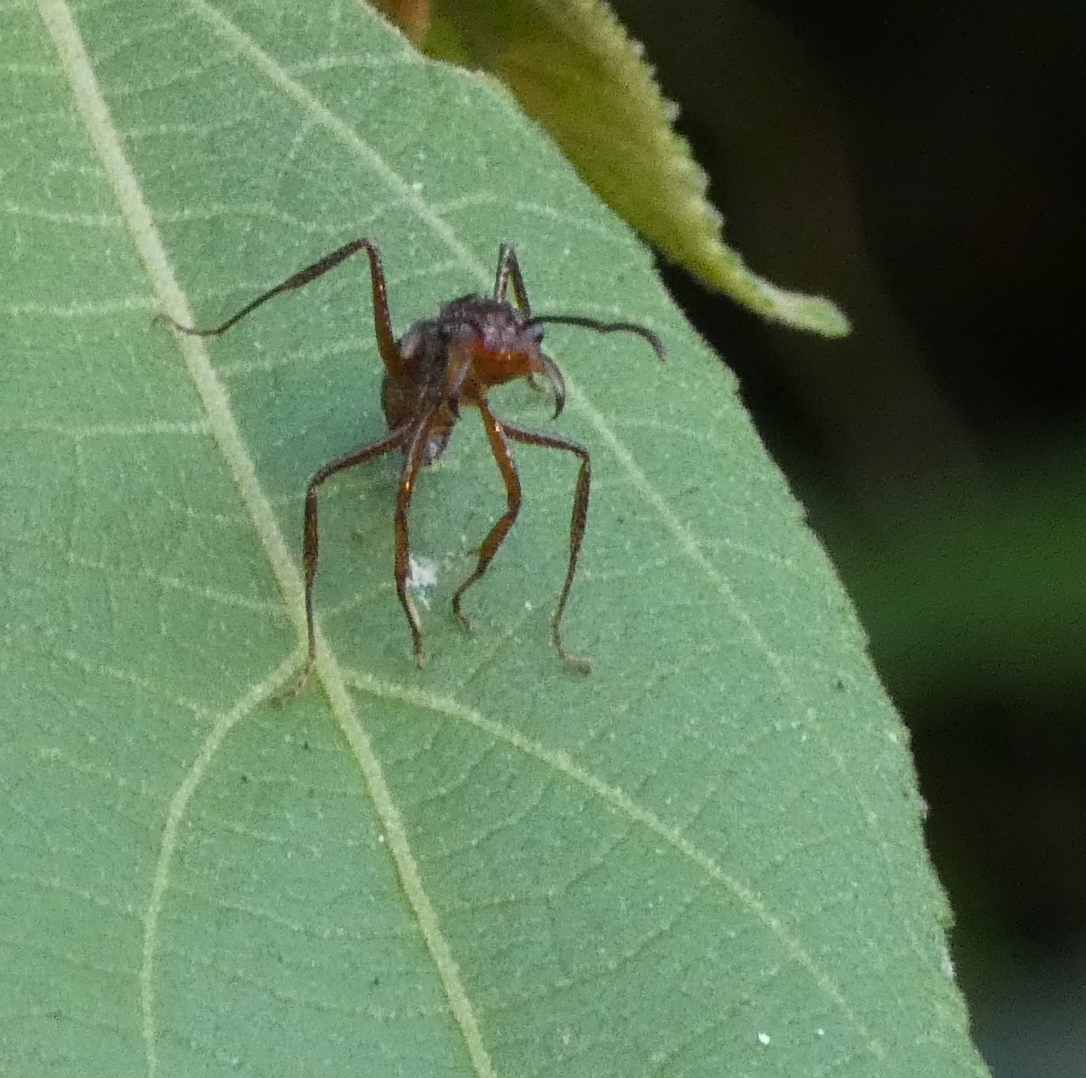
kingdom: Animalia
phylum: Arthropoda
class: Insecta
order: Hymenoptera
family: Formicidae
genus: Ectatomma
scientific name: Ectatomma tuberculatum
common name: Ant
